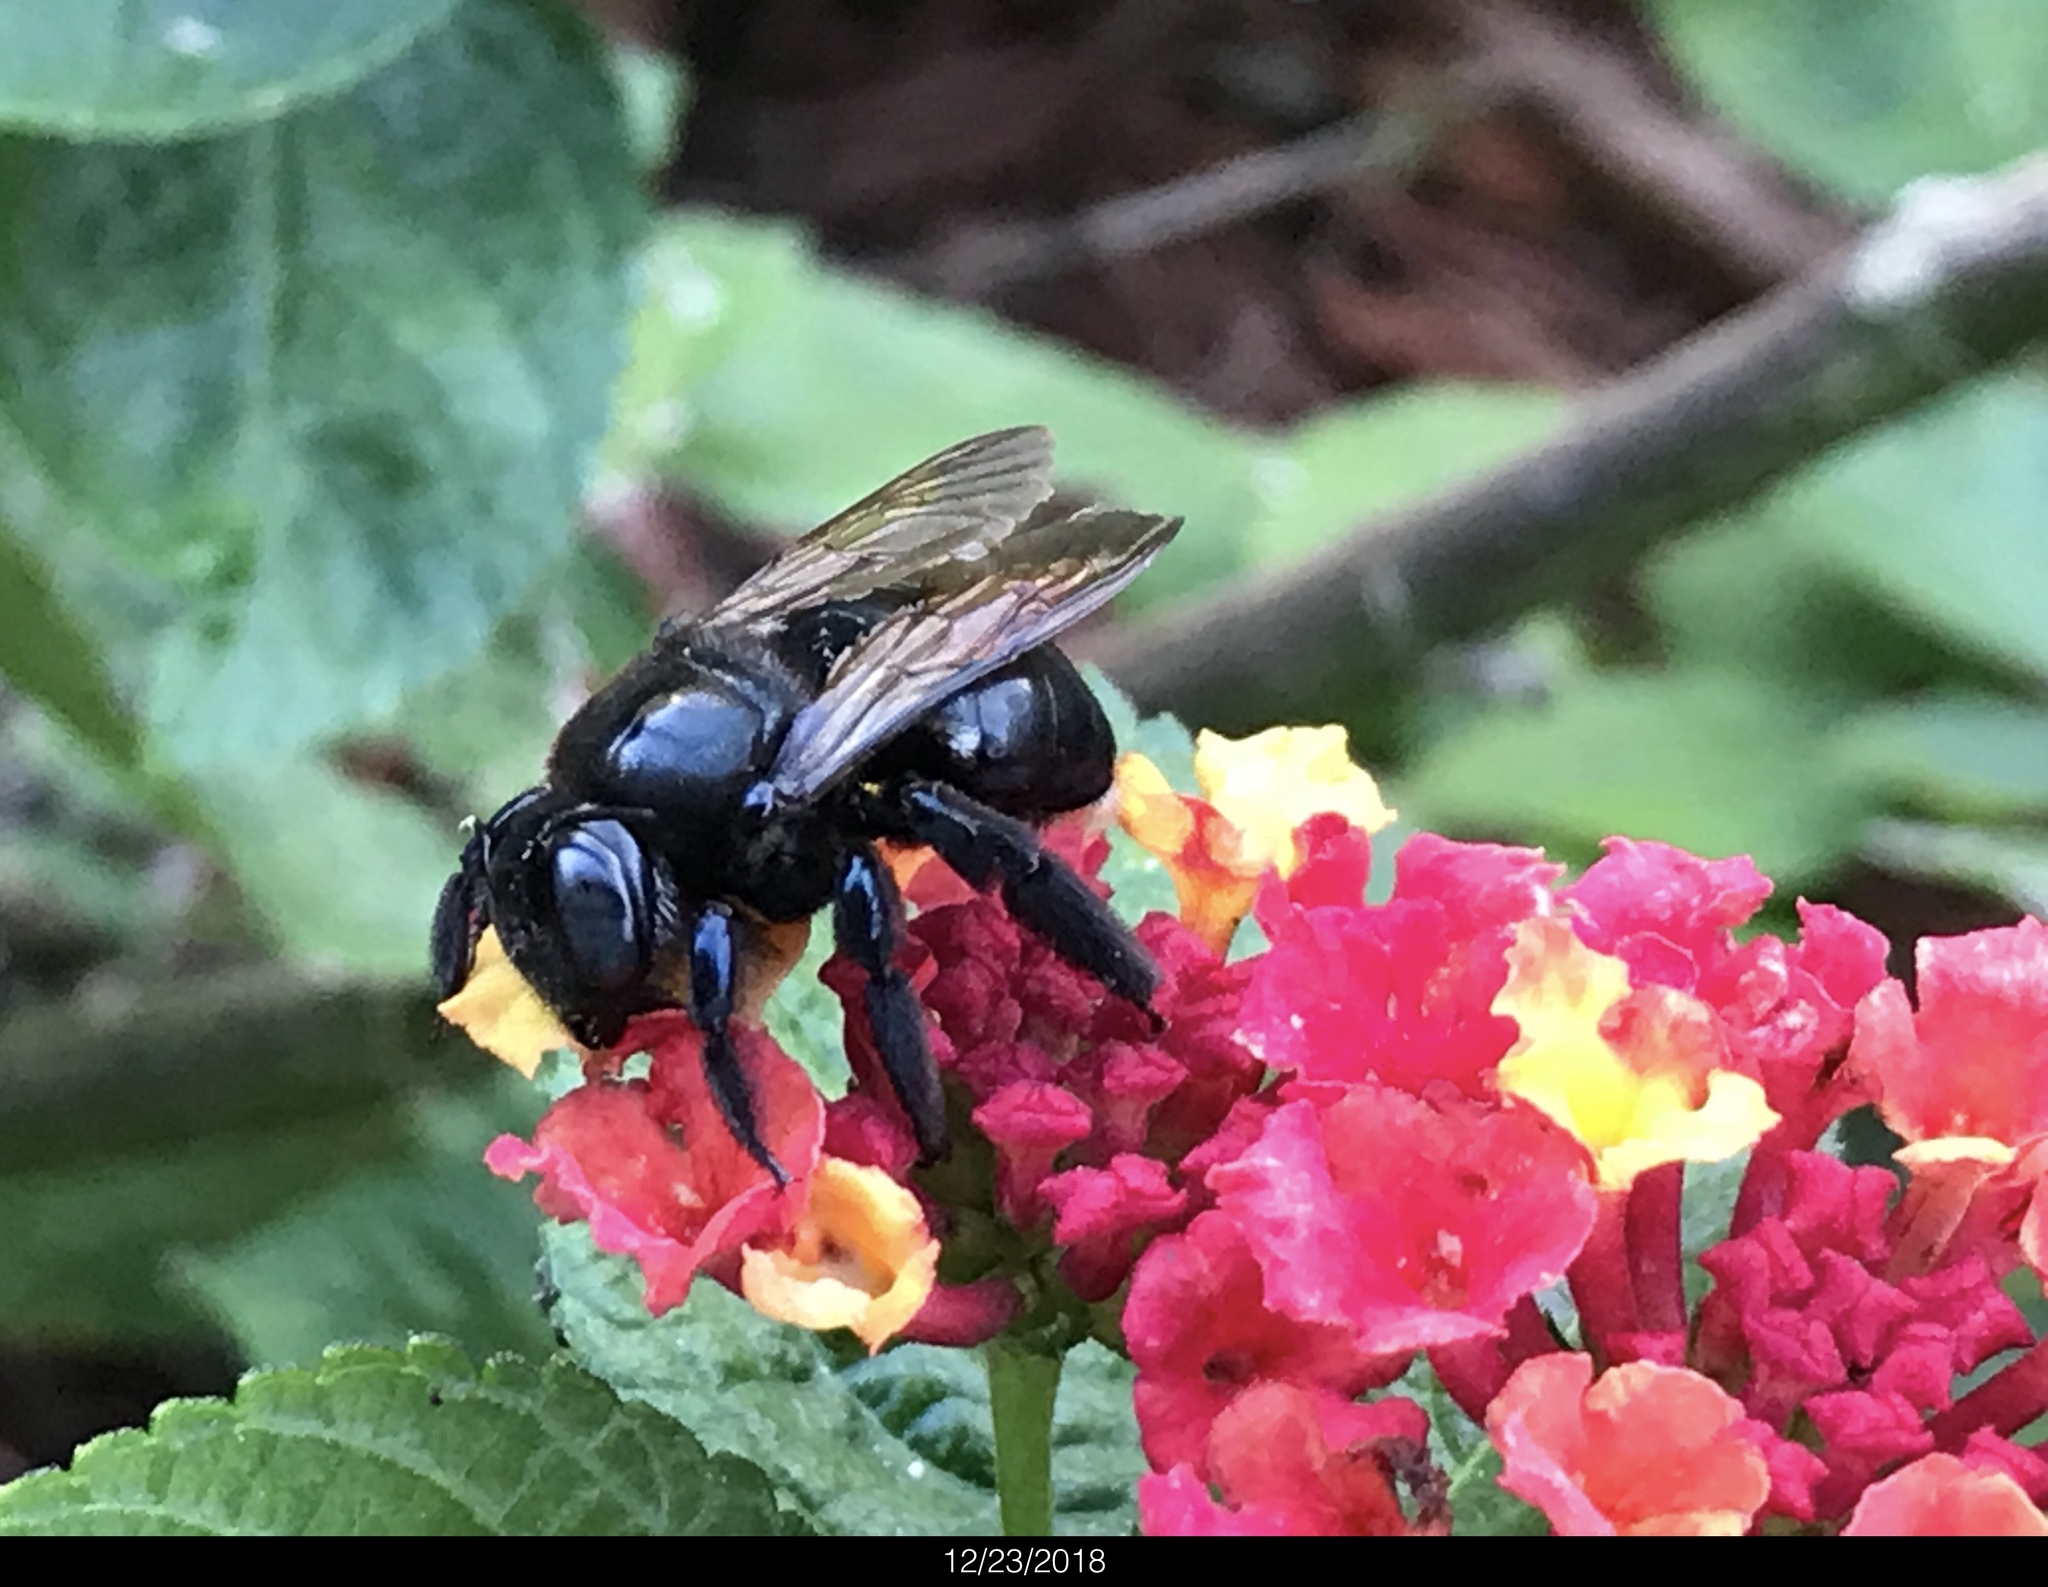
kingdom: Animalia
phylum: Arthropoda
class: Insecta
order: Hymenoptera
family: Apidae
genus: Xylocopa
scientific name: Xylocopa micans
